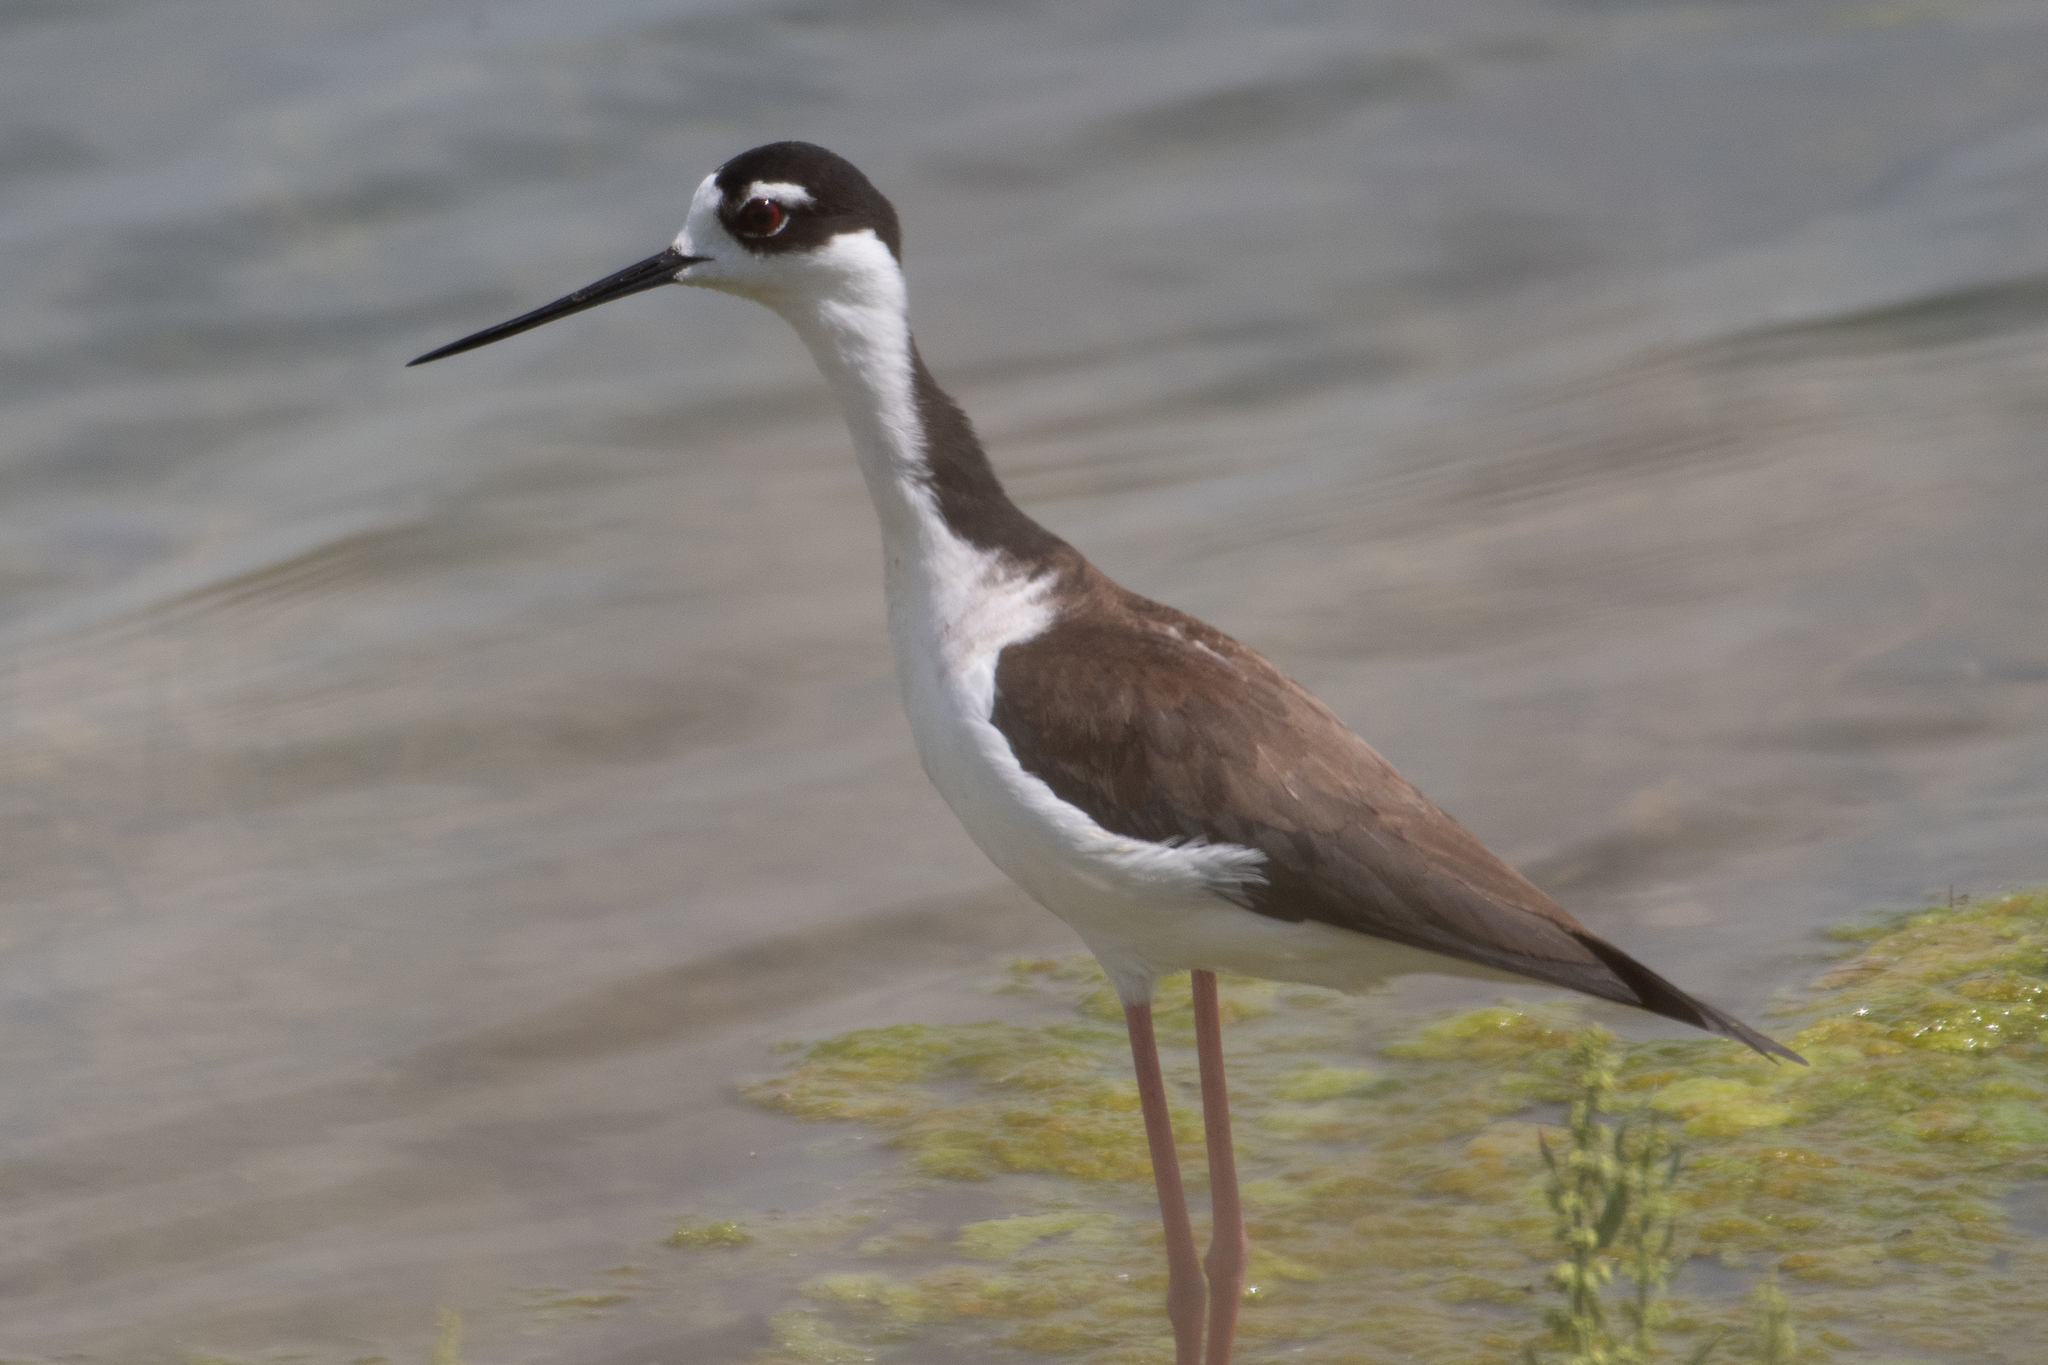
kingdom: Animalia
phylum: Chordata
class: Aves
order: Charadriiformes
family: Recurvirostridae
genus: Himantopus
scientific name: Himantopus mexicanus
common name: Black-necked stilt
